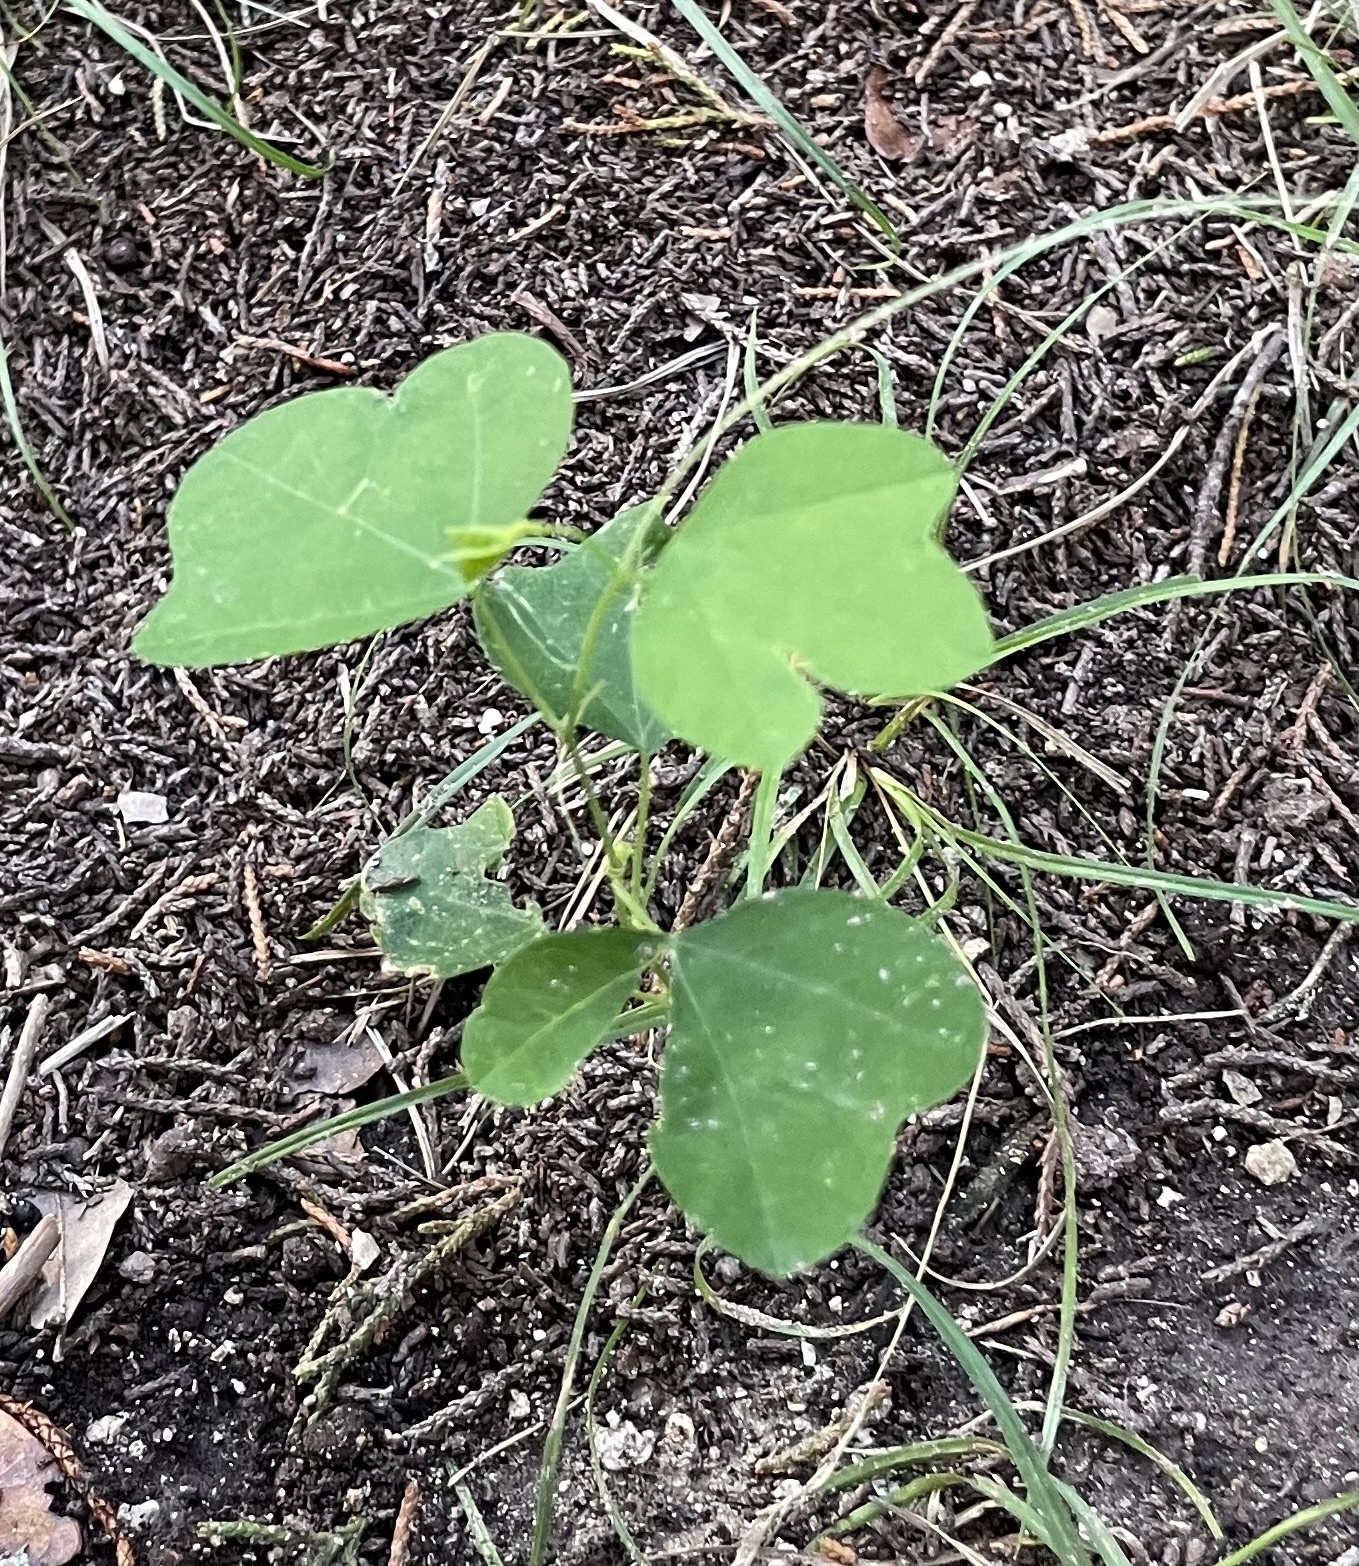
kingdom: Plantae
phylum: Tracheophyta
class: Magnoliopsida
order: Malpighiales
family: Passifloraceae
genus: Passiflora
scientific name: Passiflora lutea
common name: Yellow passionflower
